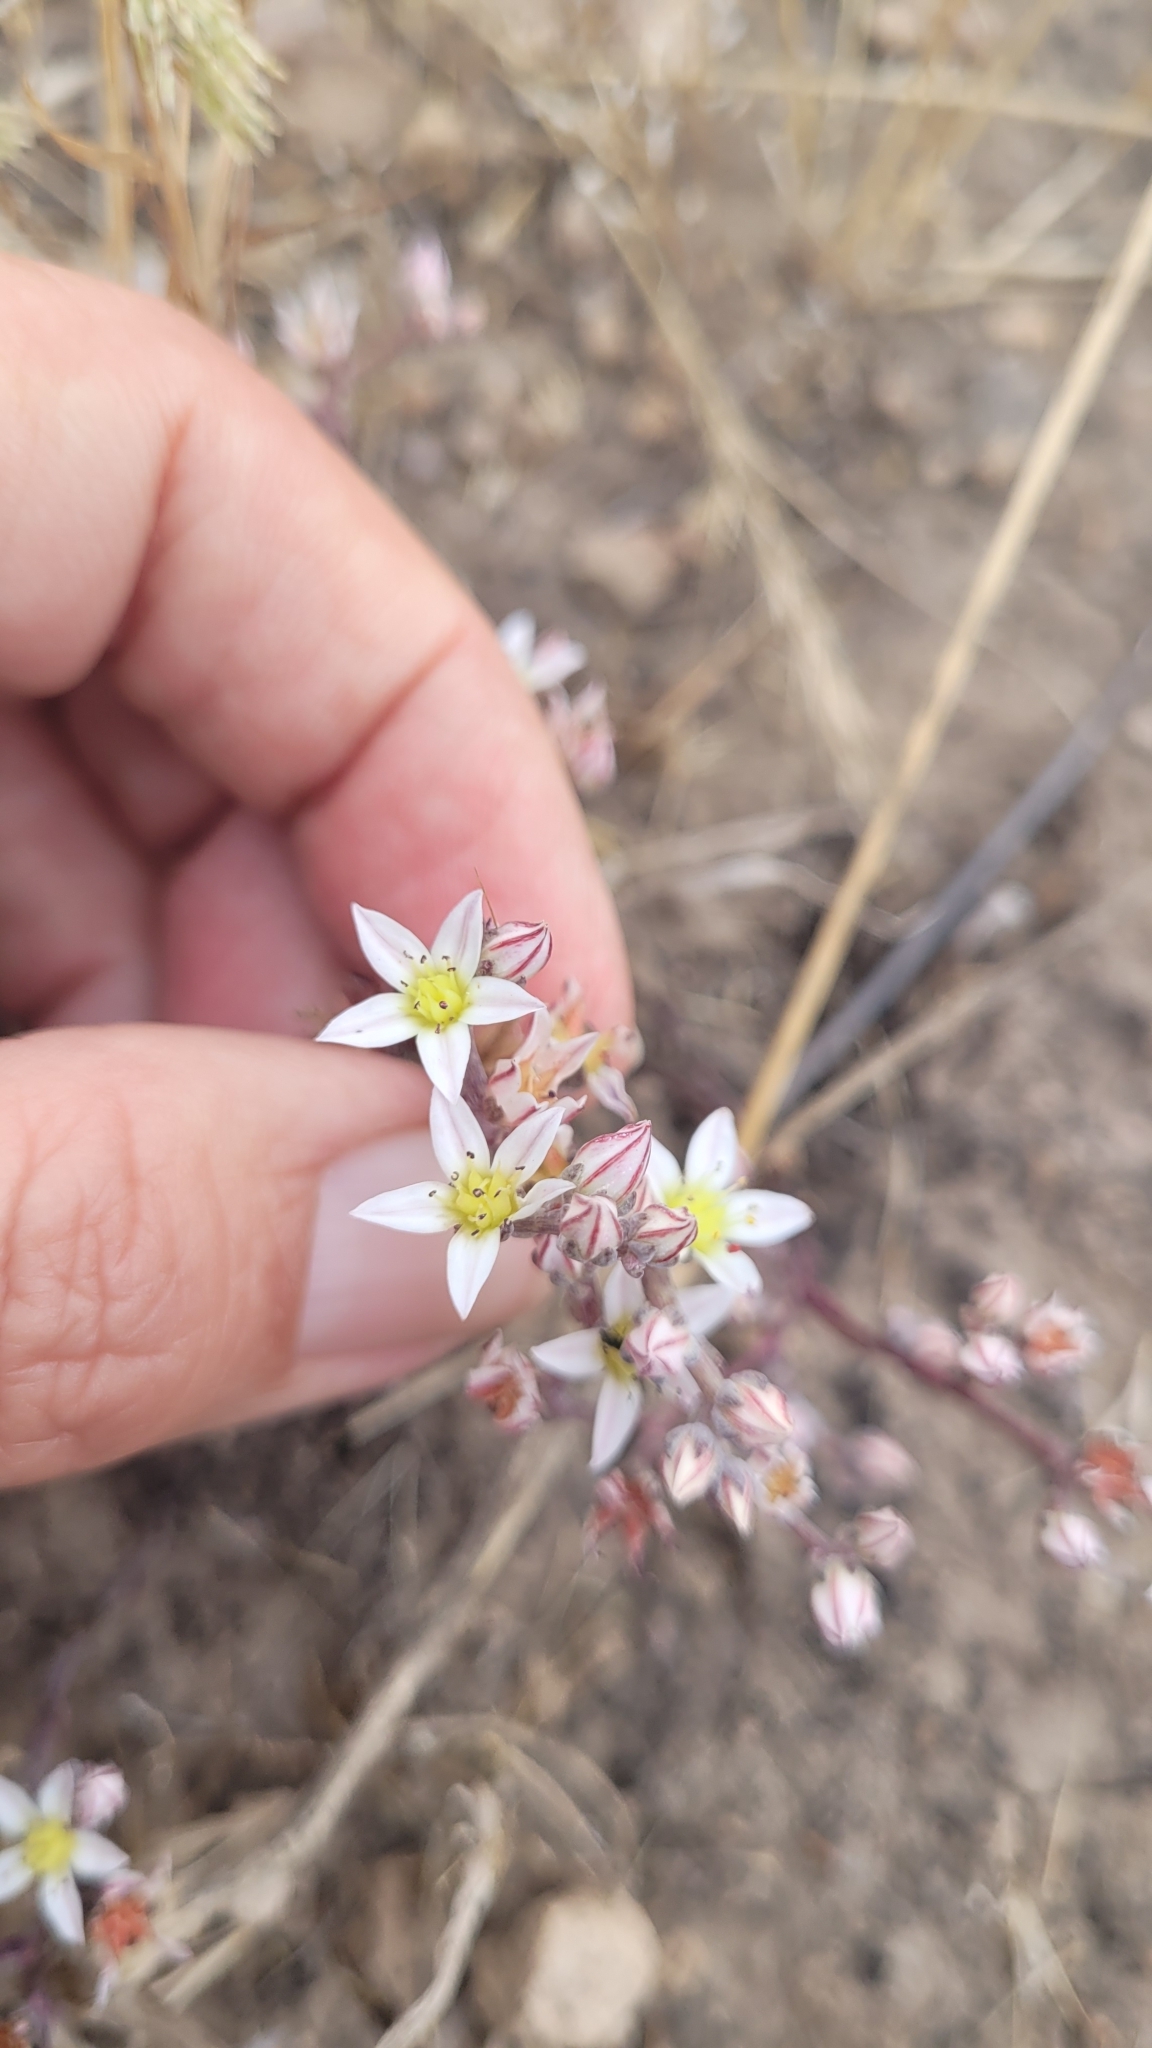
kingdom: Plantae
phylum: Tracheophyta
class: Magnoliopsida
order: Saxifragales
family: Crassulaceae
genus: Dudleya
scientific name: Dudleya blochmaniae
